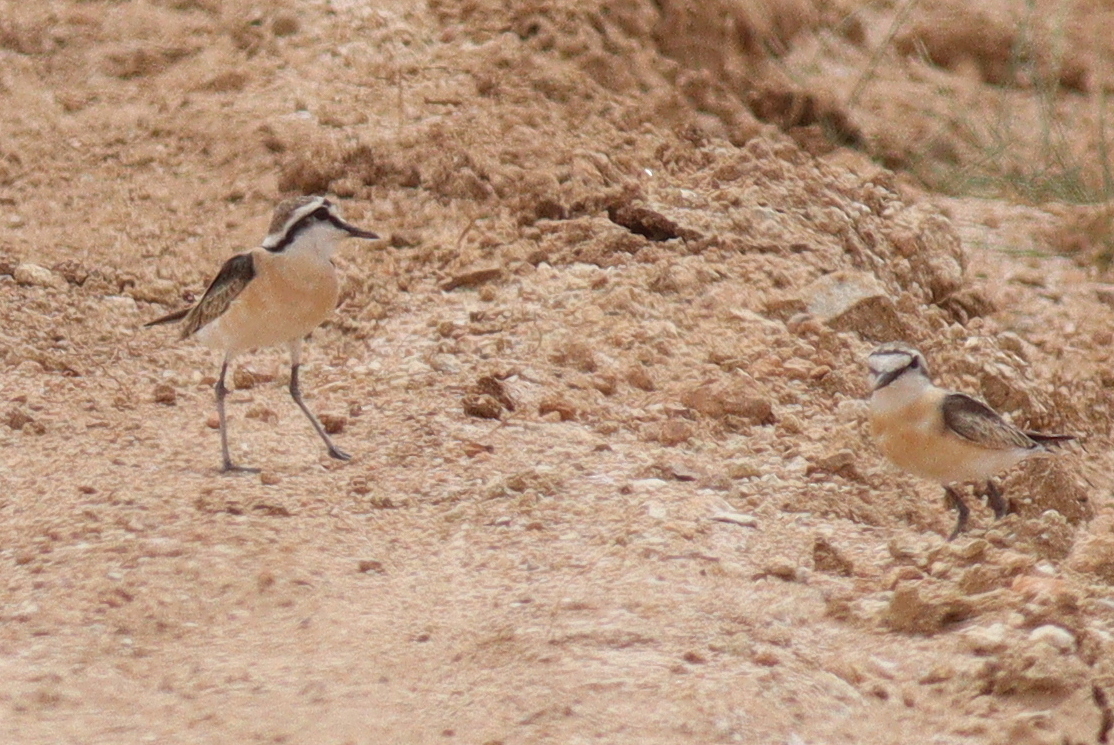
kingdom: Animalia
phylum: Chordata
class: Aves
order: Charadriiformes
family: Charadriidae
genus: Anarhynchus
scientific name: Anarhynchus
